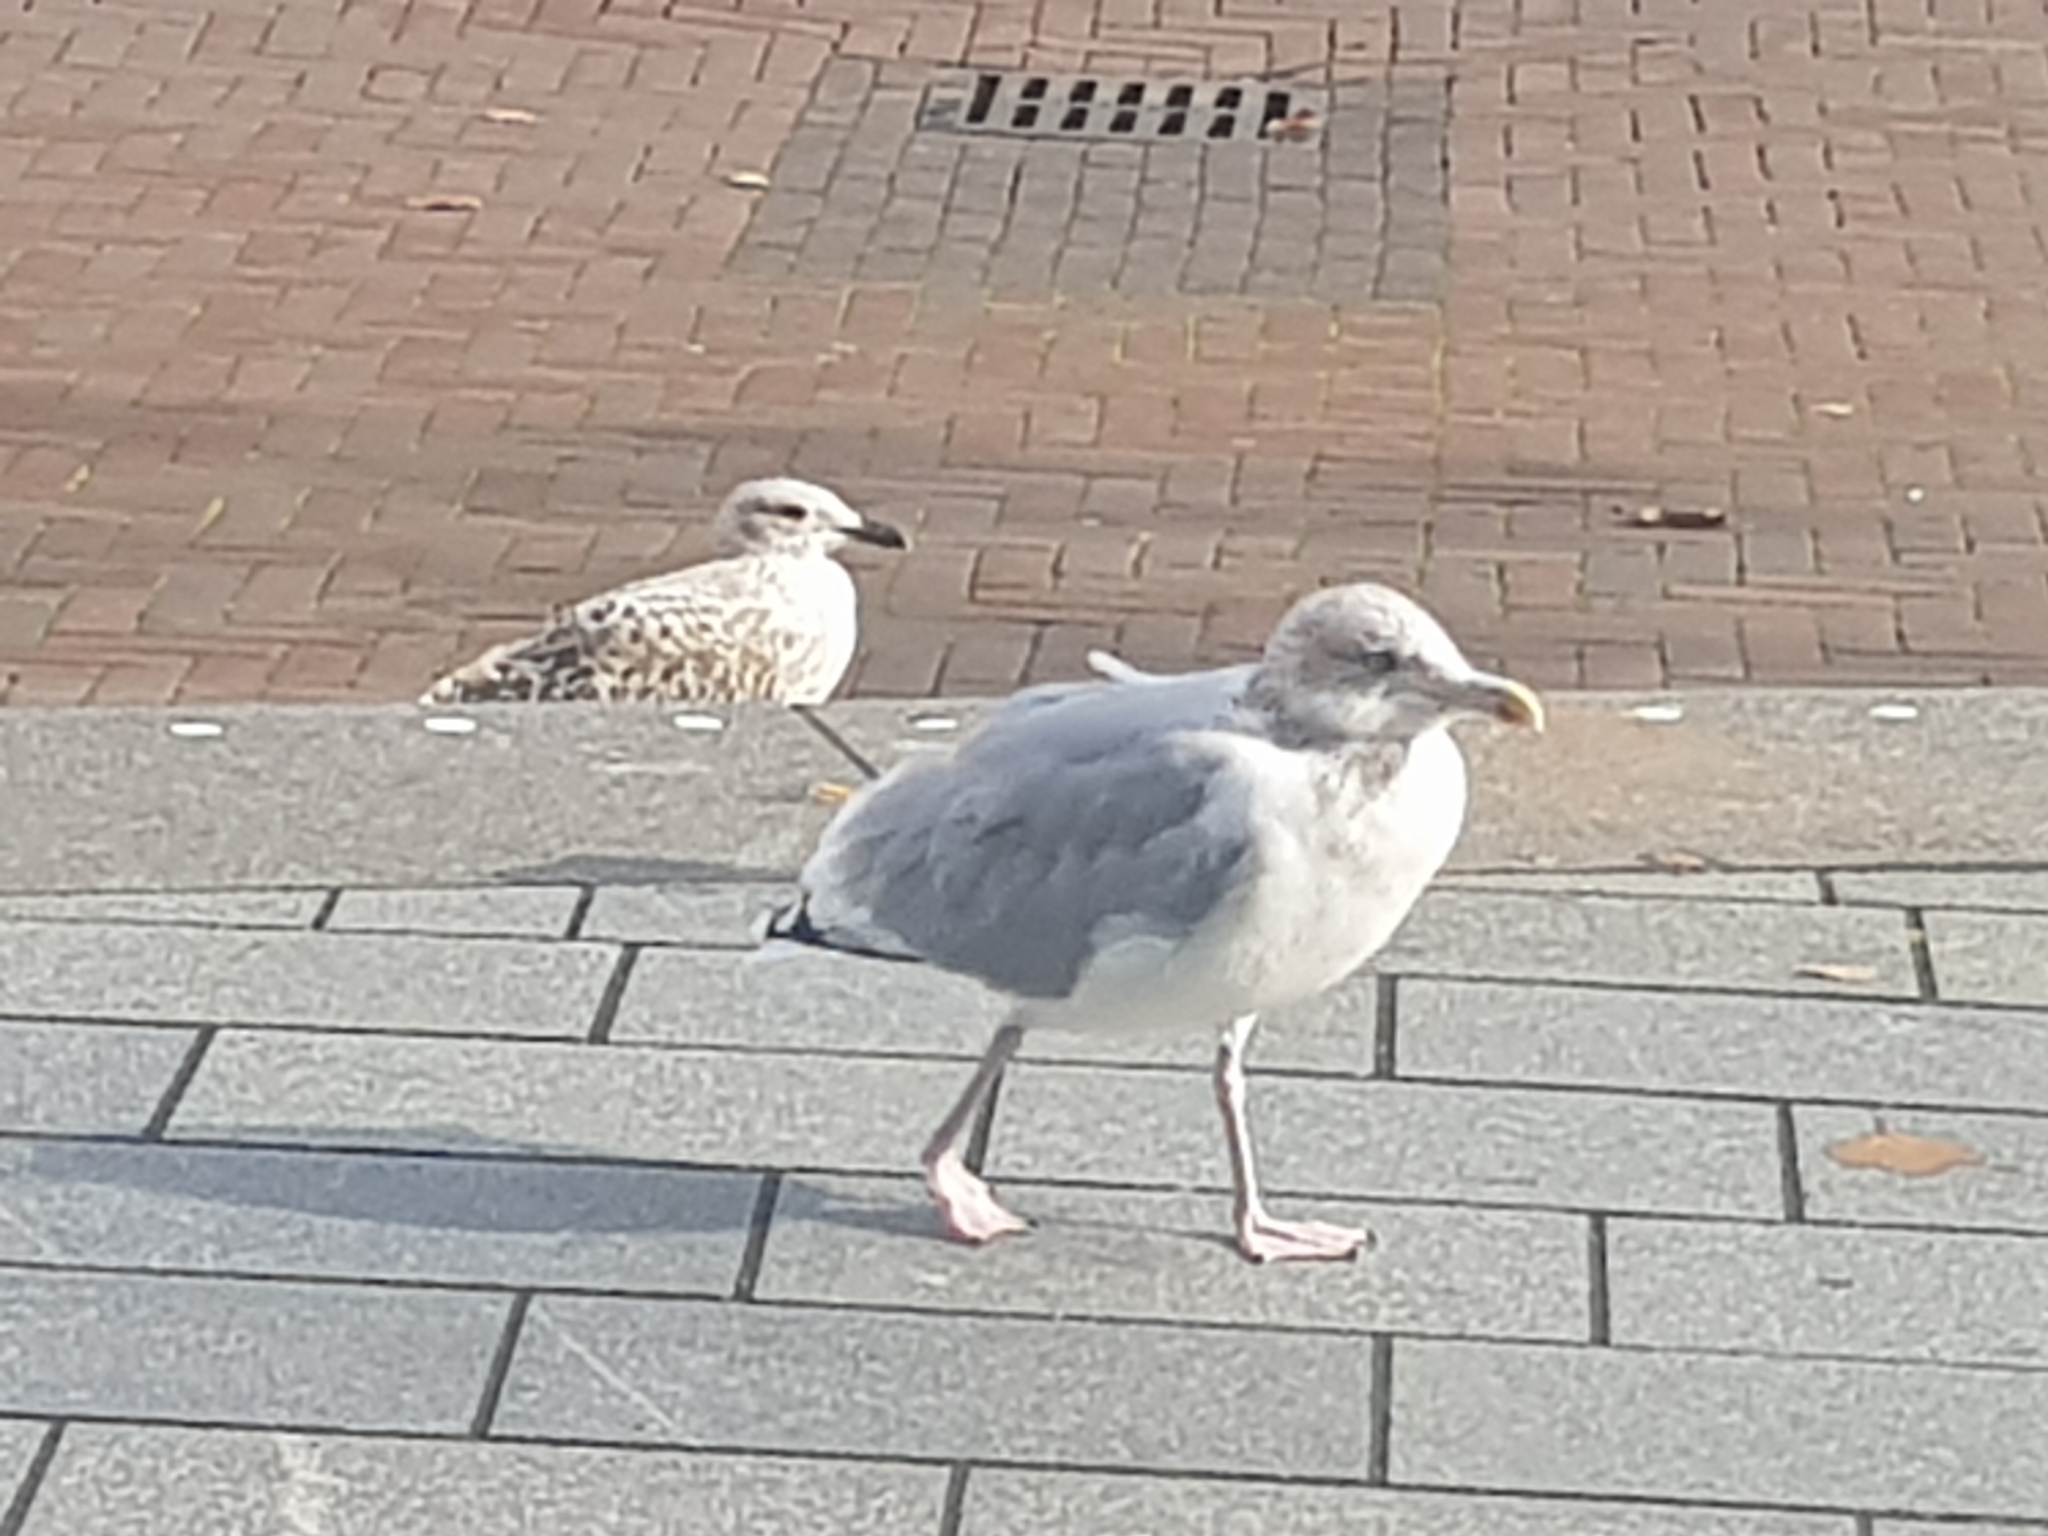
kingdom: Animalia
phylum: Chordata
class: Aves
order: Charadriiformes
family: Laridae
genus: Larus
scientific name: Larus argentatus
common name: Herring gull
